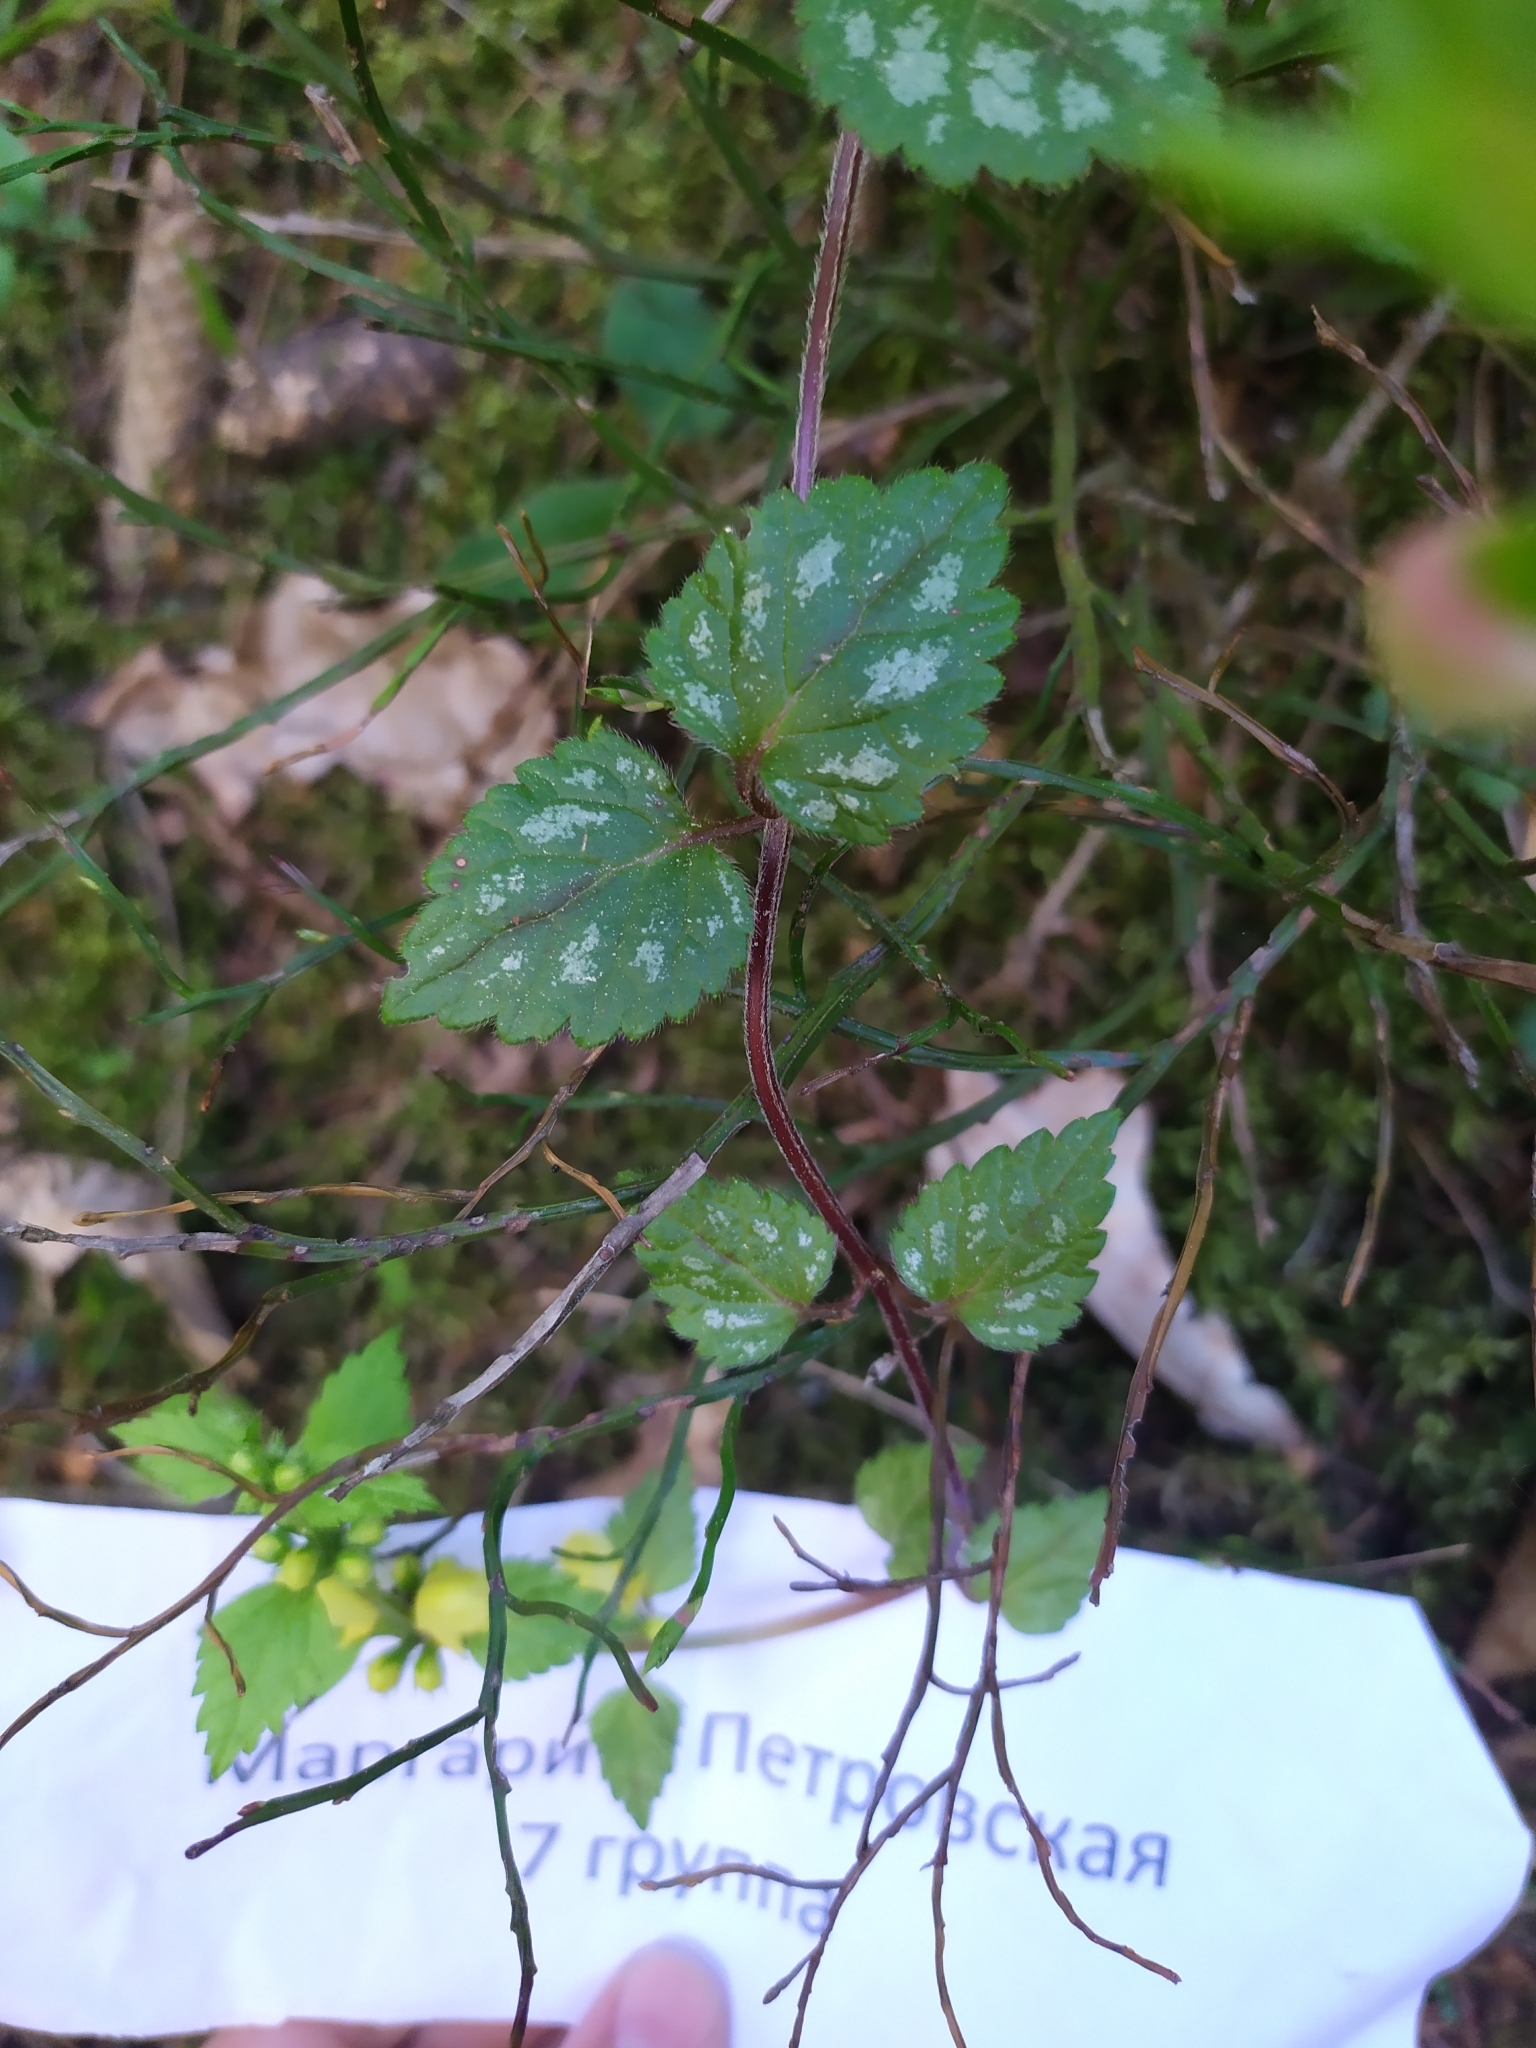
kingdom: Plantae
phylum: Tracheophyta
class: Magnoliopsida
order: Lamiales
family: Lamiaceae
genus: Lamium
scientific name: Lamium galeobdolon
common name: Yellow archangel
